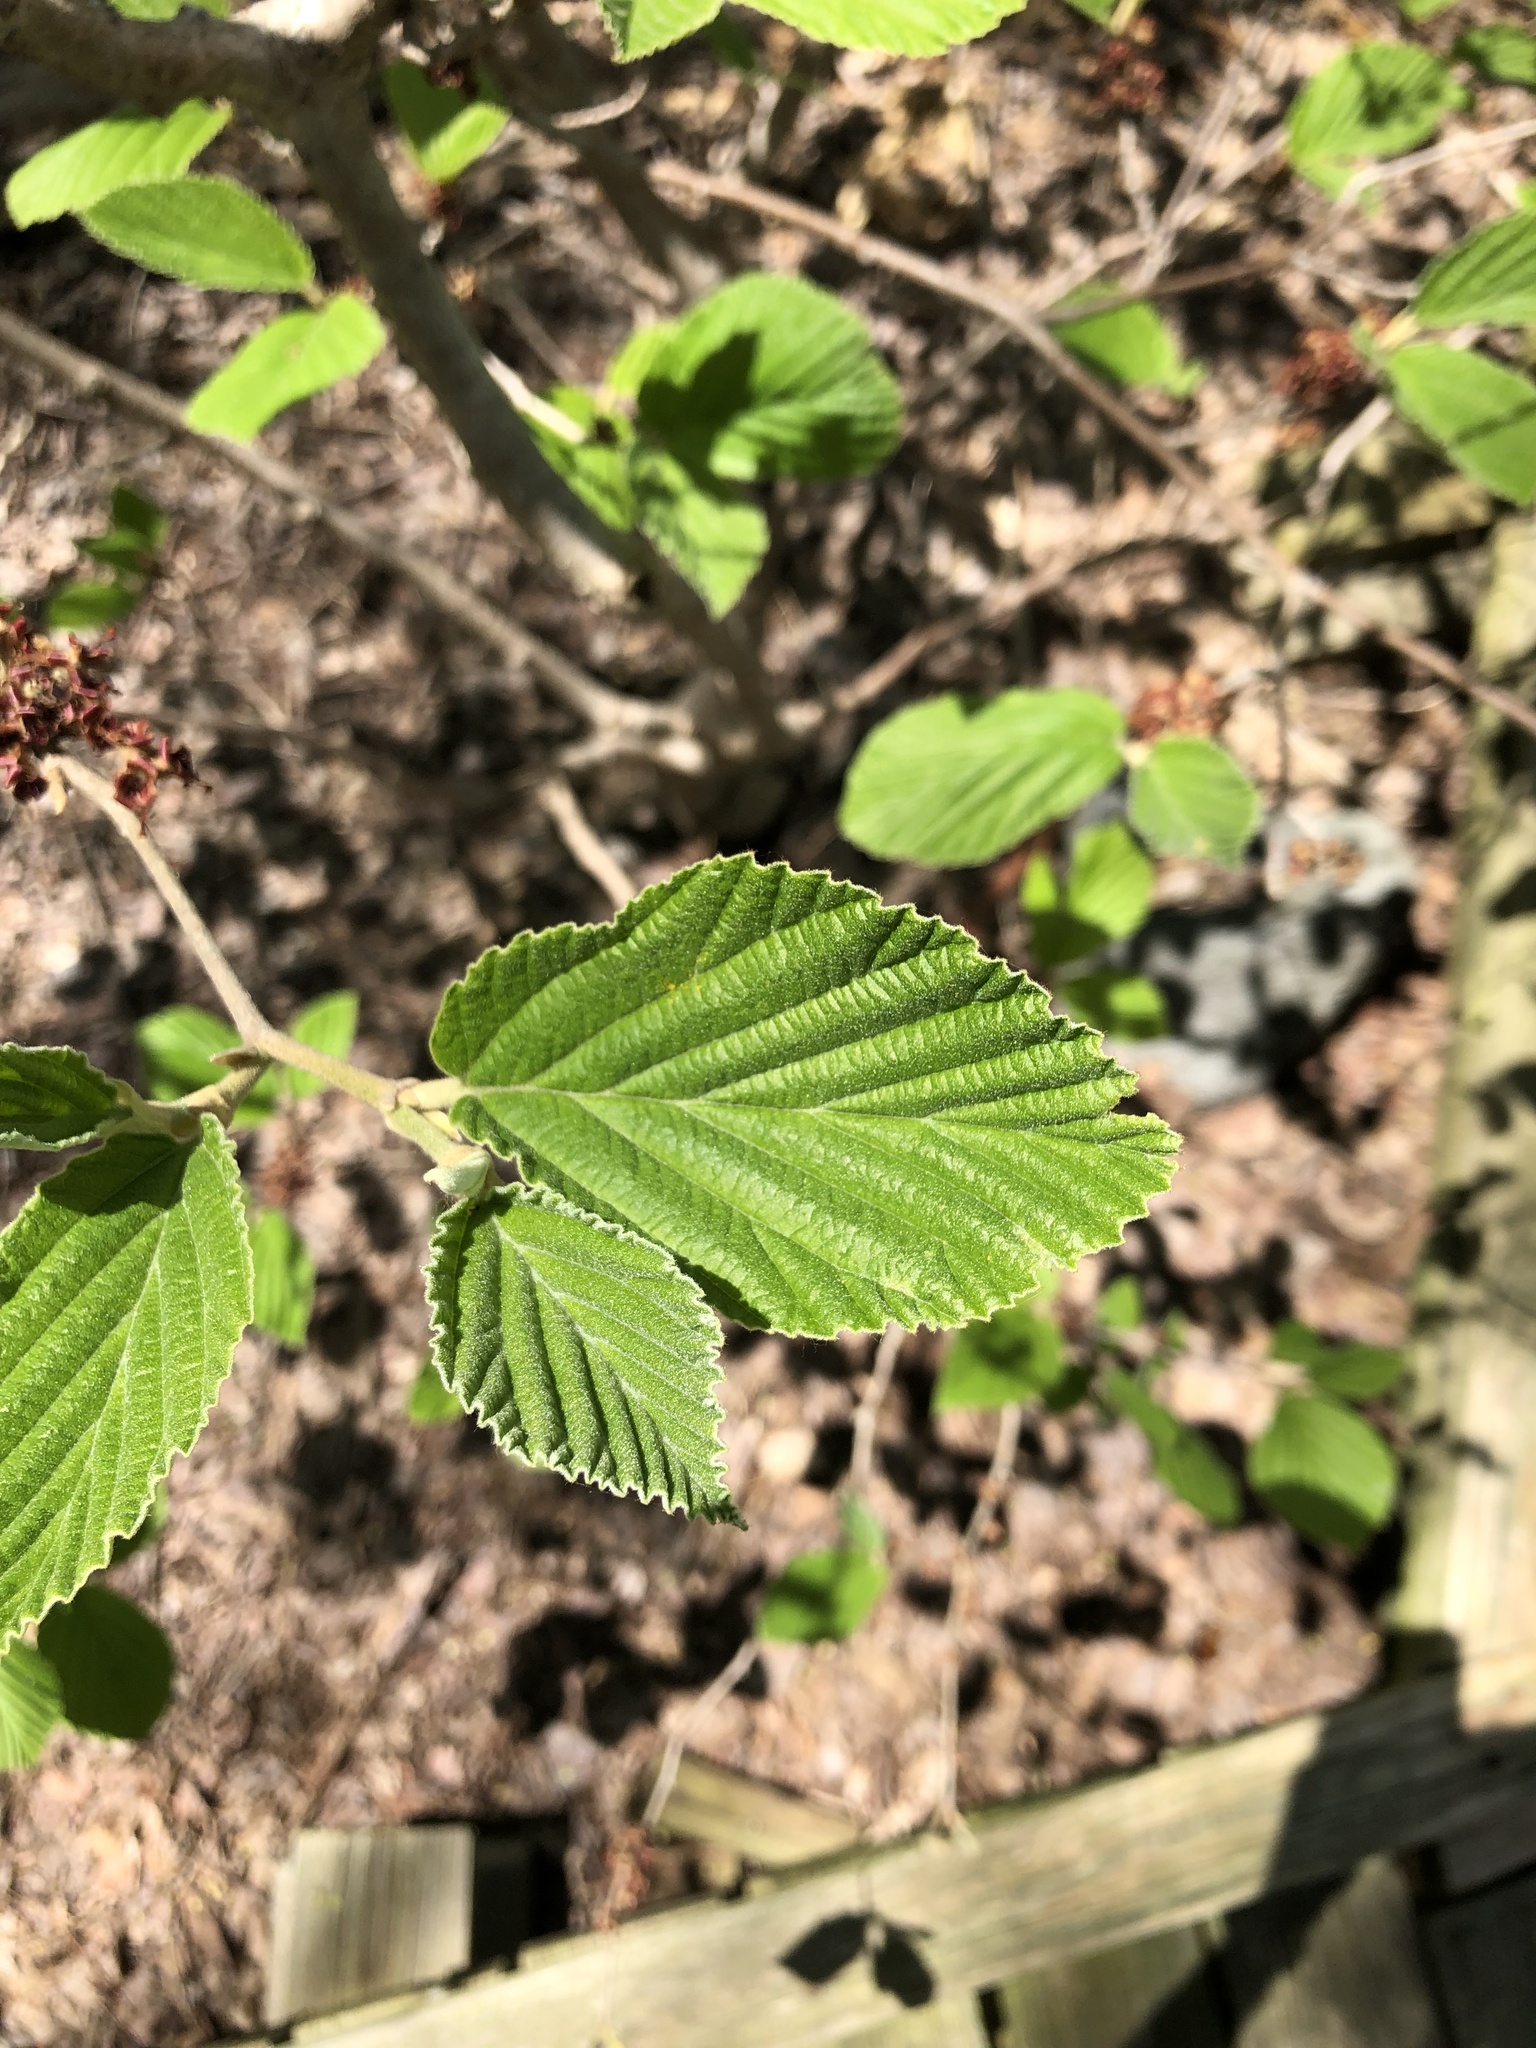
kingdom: Plantae
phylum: Tracheophyta
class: Magnoliopsida
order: Saxifragales
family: Hamamelidaceae
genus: Hamamelis
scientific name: Hamamelis virginiana
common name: Witch-hazel
